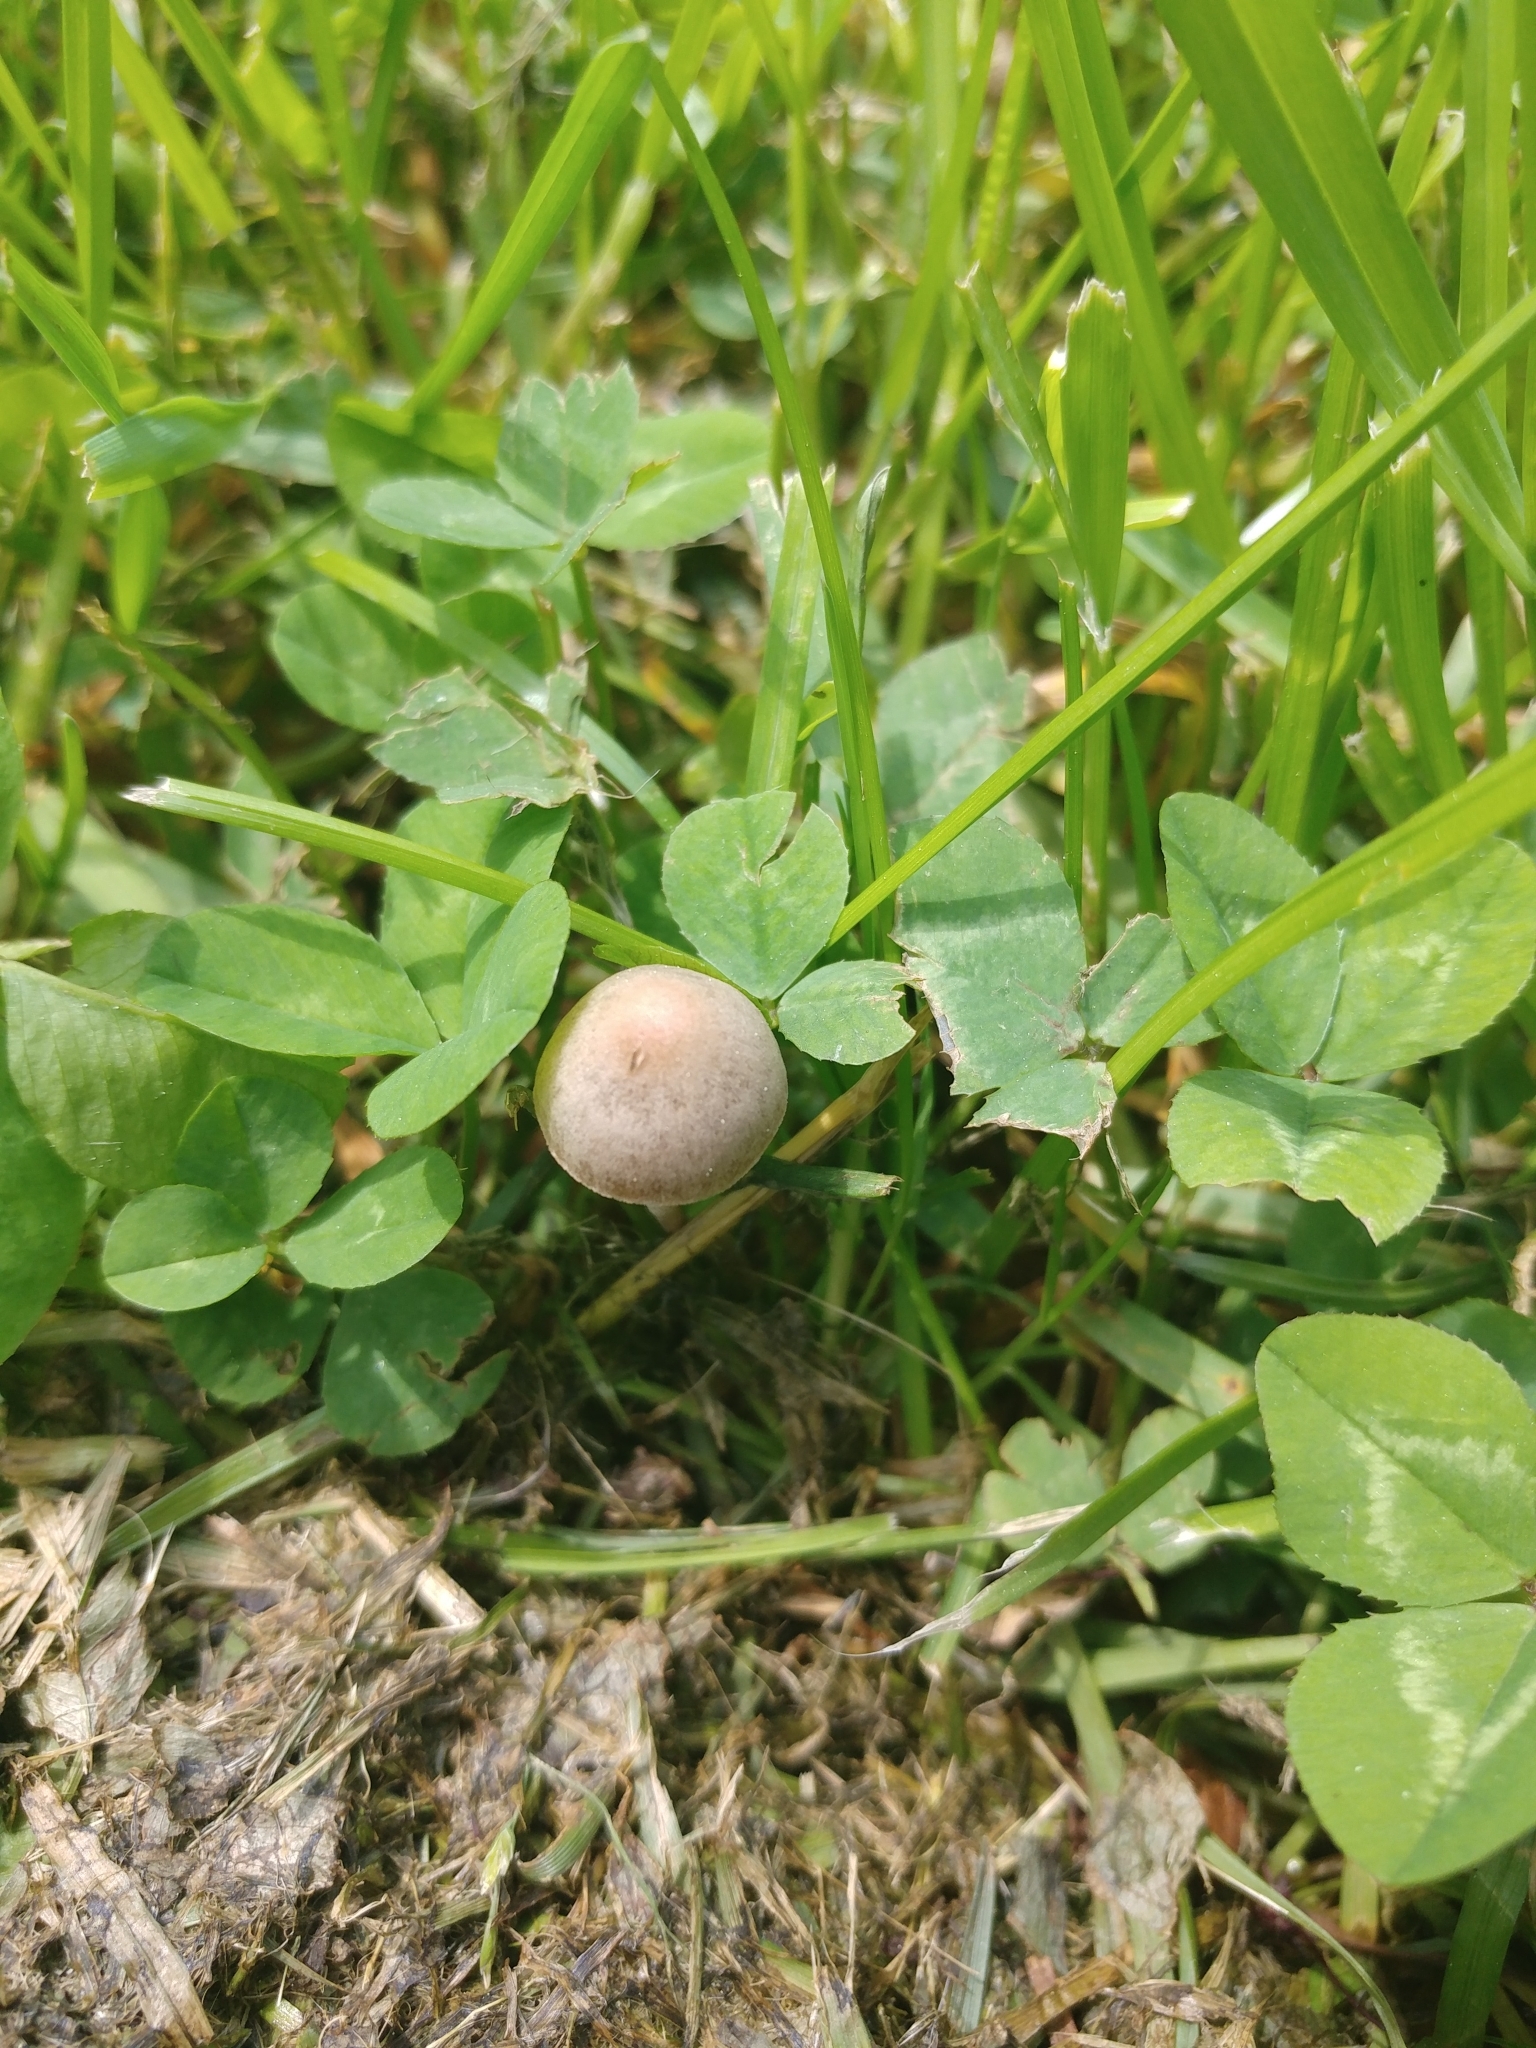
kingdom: Fungi
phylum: Basidiomycota
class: Agaricomycetes
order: Agaricales
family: Bolbitiaceae
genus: Panaeolina
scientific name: Panaeolina foenisecii
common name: Brown hay cap
